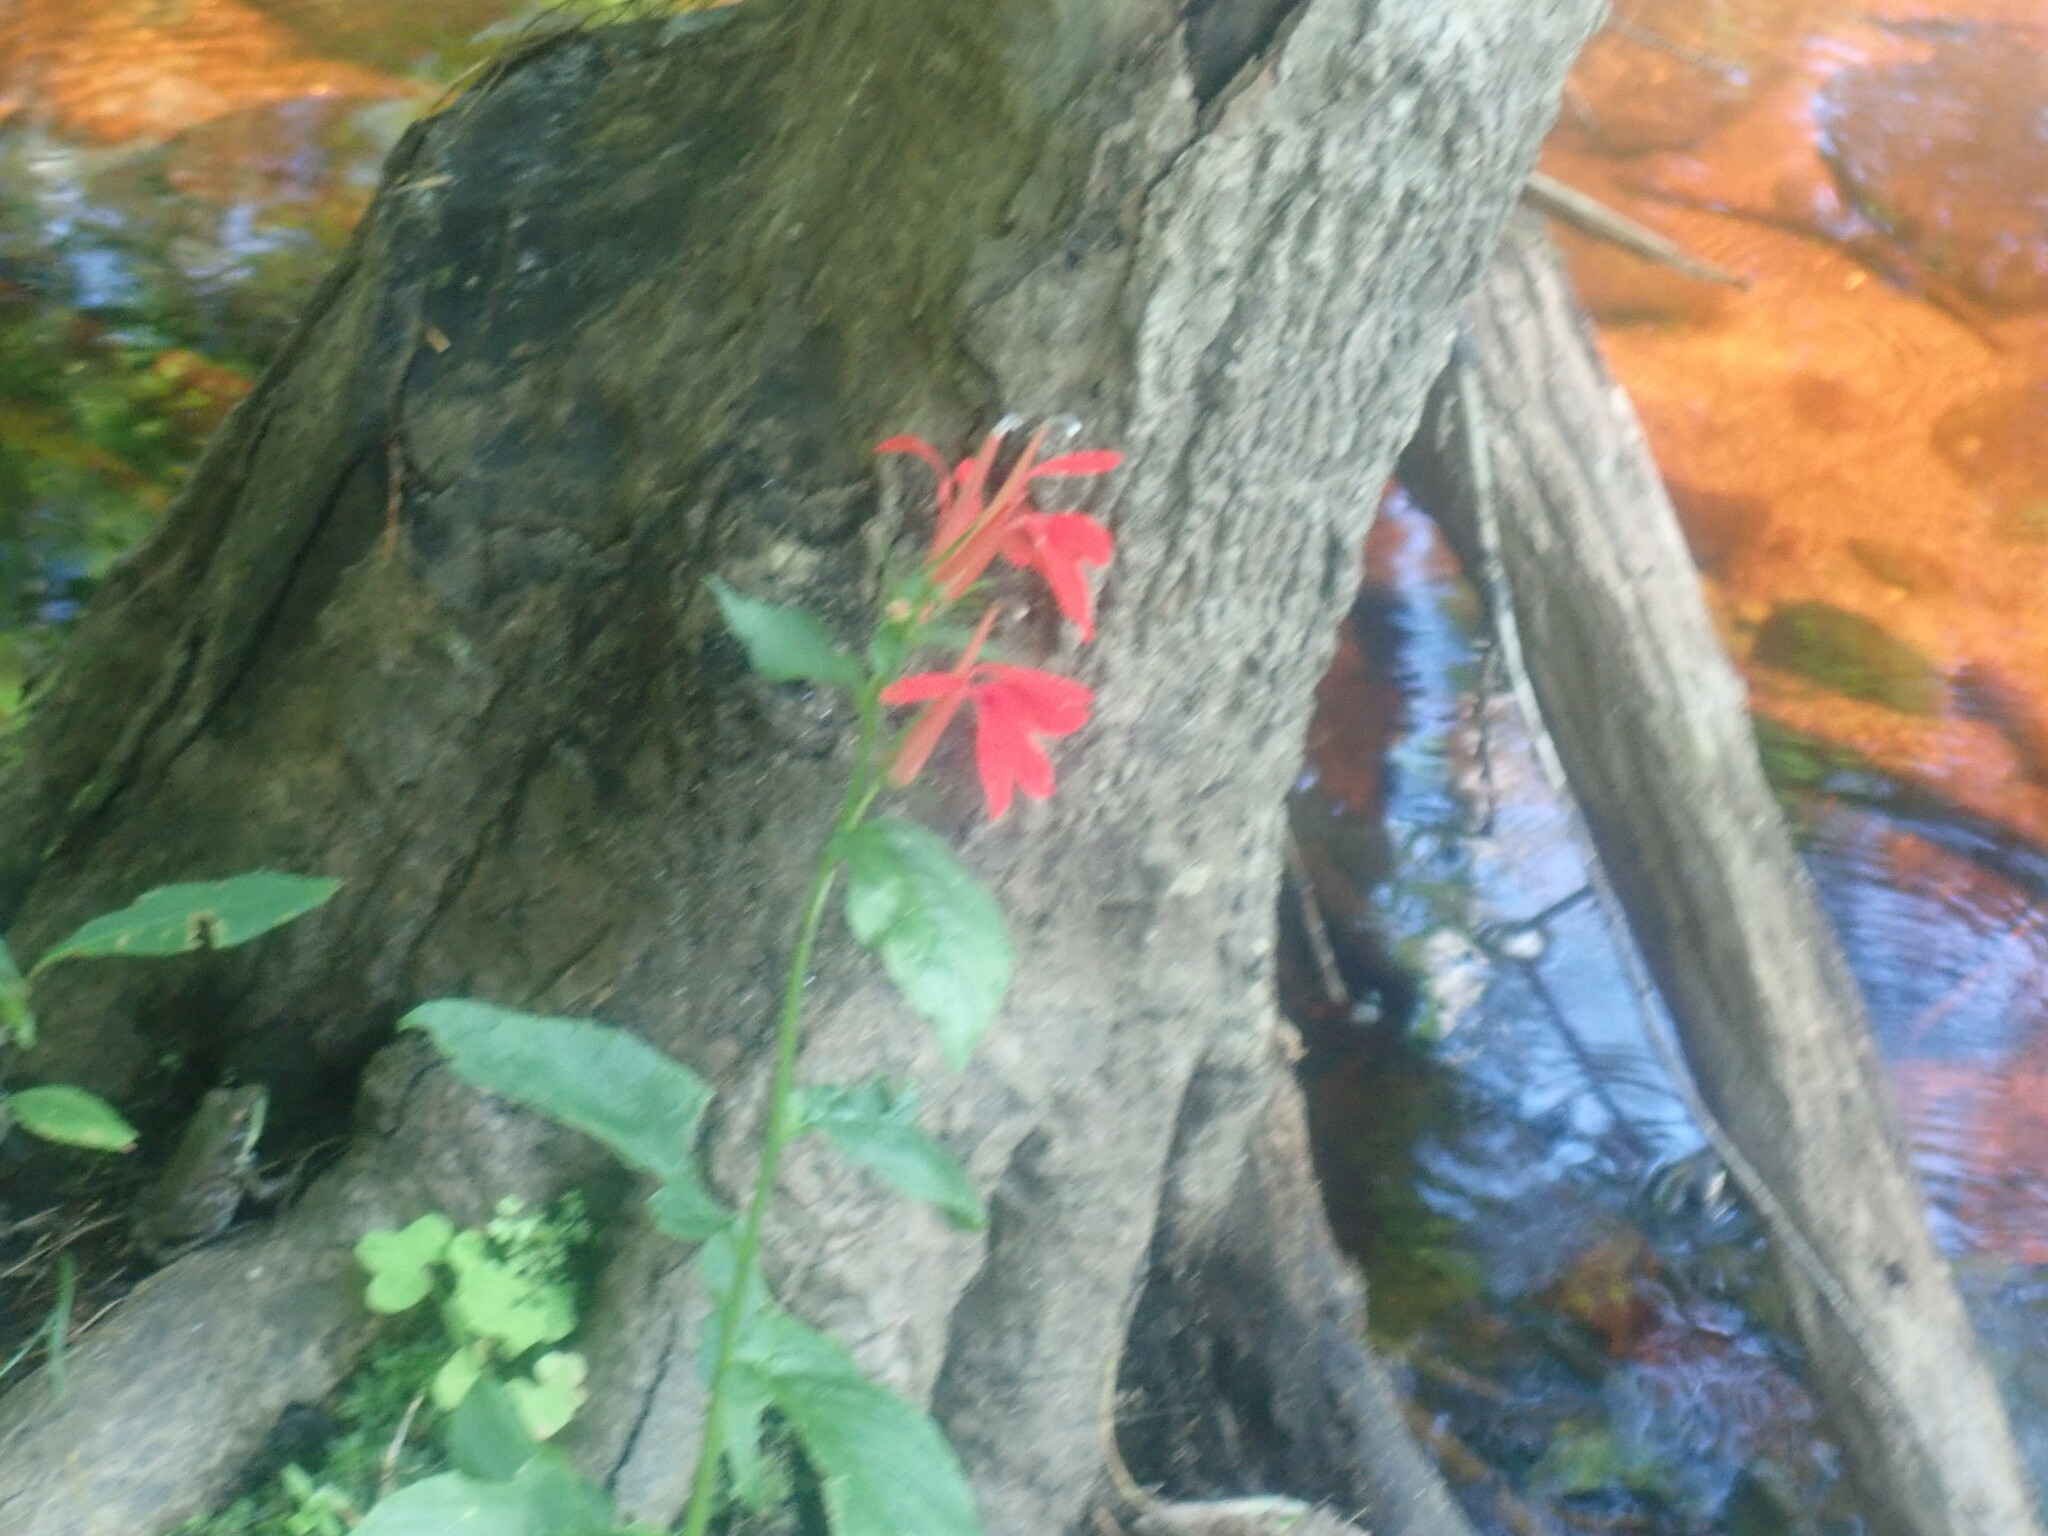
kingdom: Plantae
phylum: Tracheophyta
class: Magnoliopsida
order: Asterales
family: Campanulaceae
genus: Lobelia
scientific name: Lobelia cardinalis
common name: Cardinal flower
